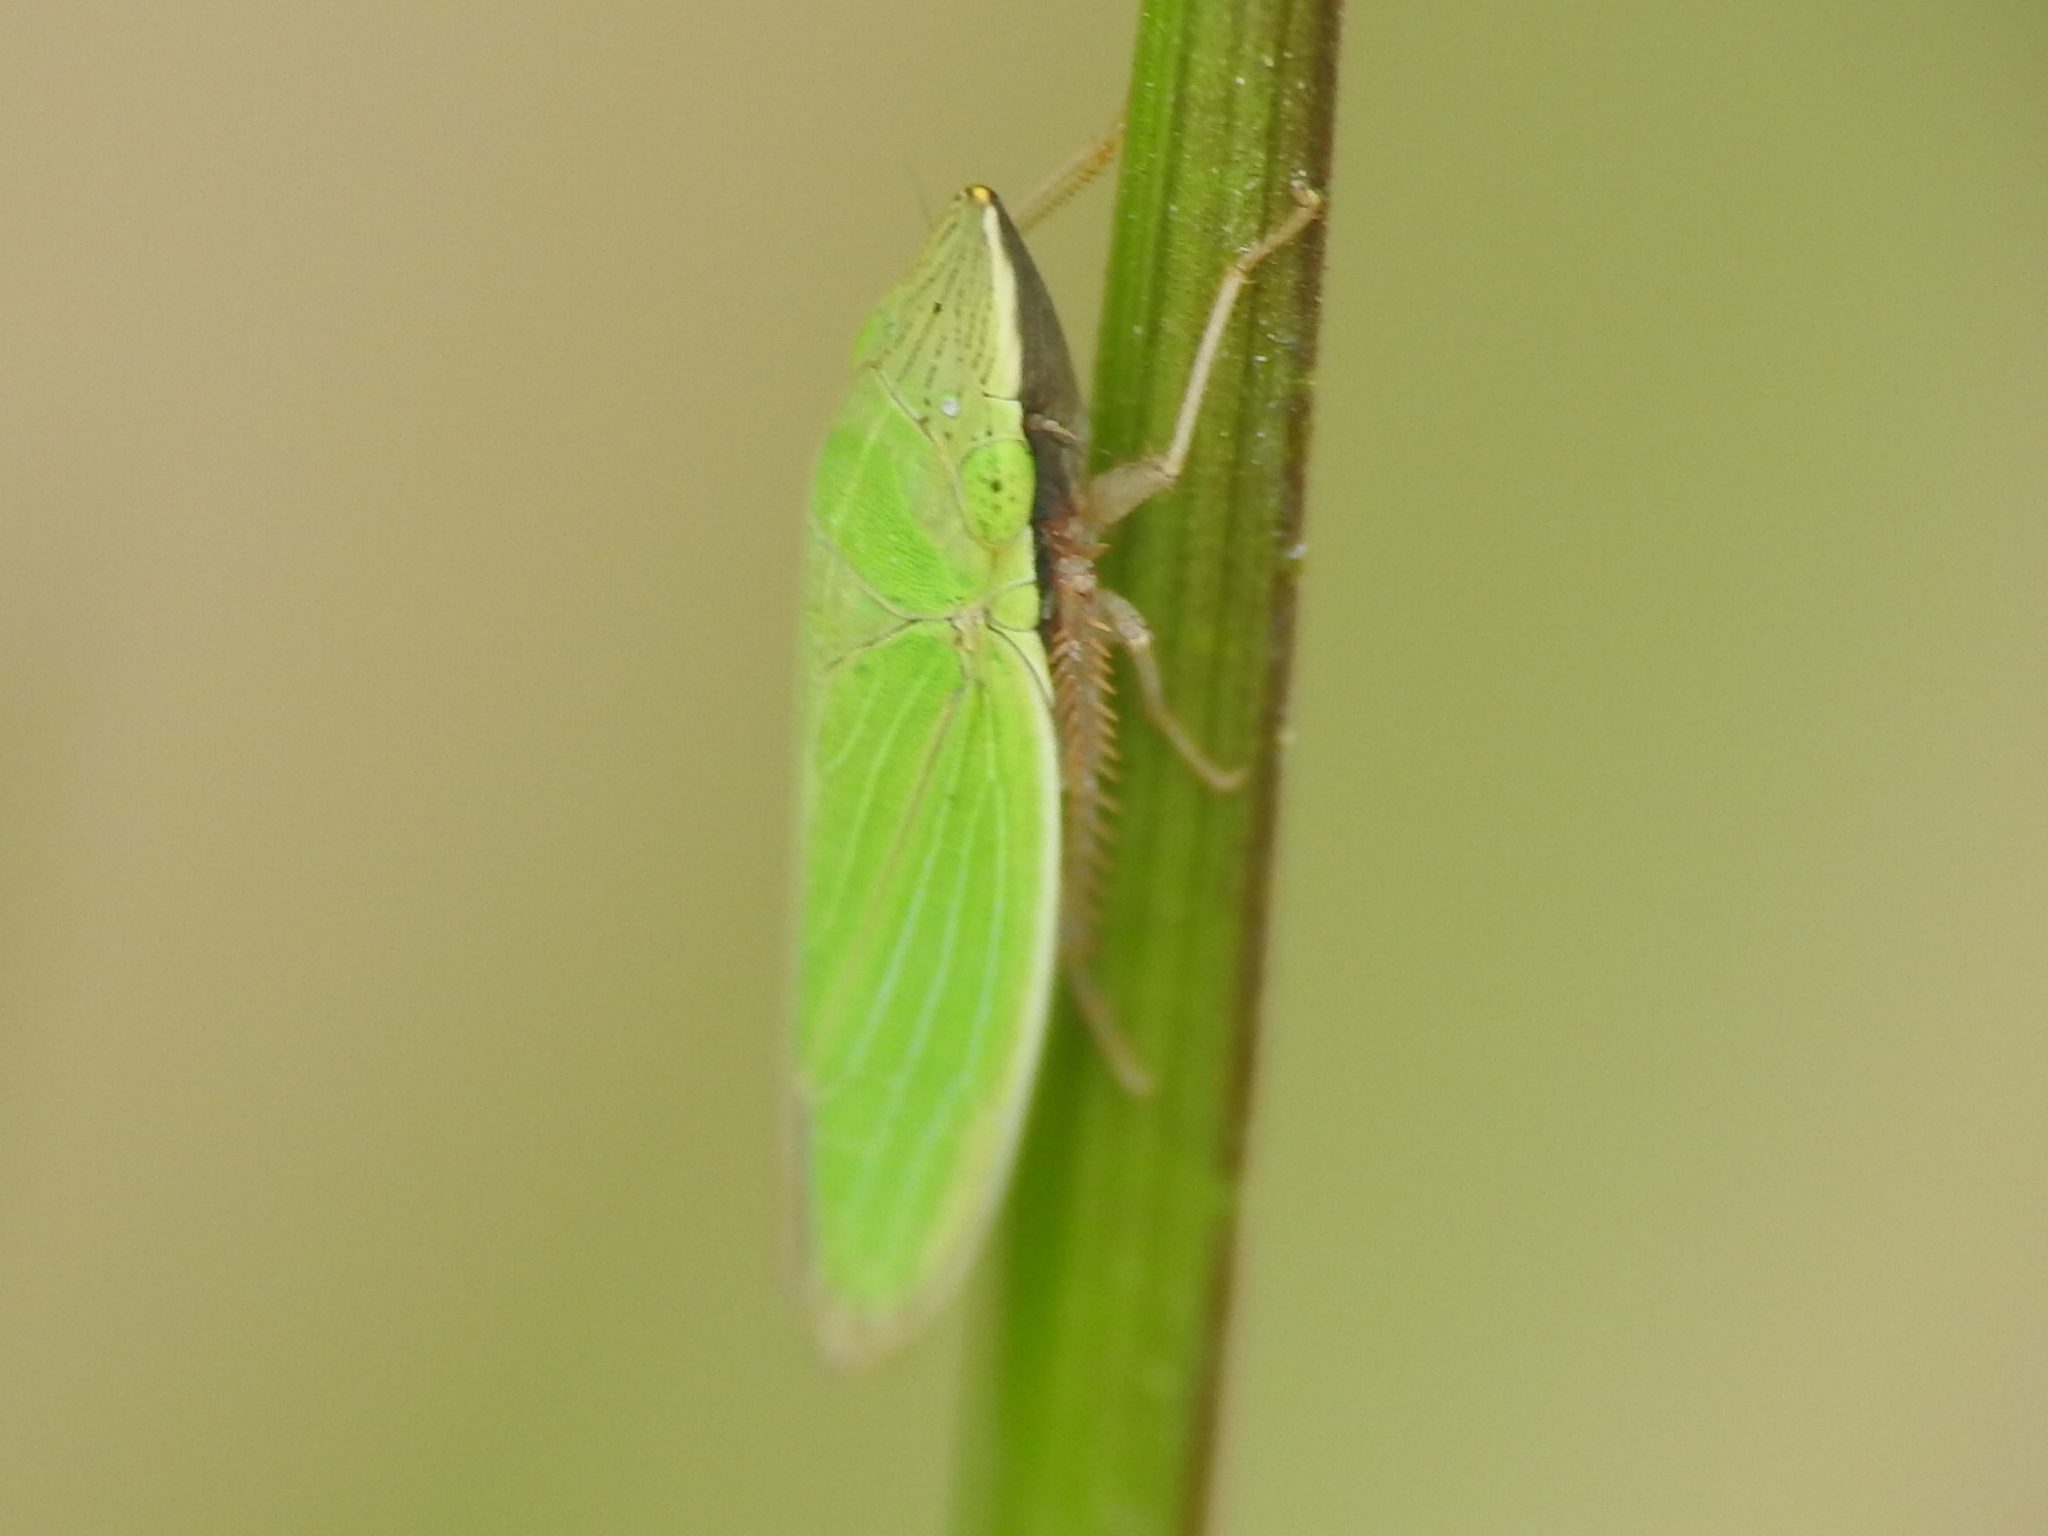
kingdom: Animalia
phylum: Arthropoda
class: Insecta
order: Hemiptera
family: Cicadellidae
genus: Draeculacephala
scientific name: Draeculacephala constricta
